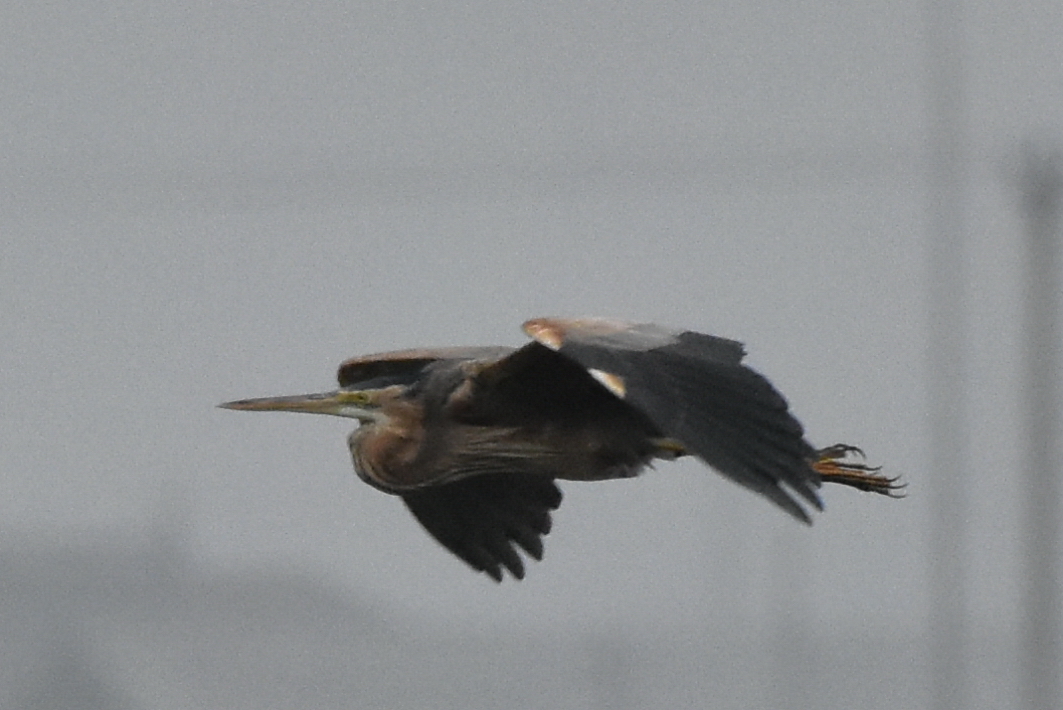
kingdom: Animalia
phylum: Chordata
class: Aves
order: Pelecaniformes
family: Ardeidae
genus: Ardea
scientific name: Ardea purpurea
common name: Purple heron
